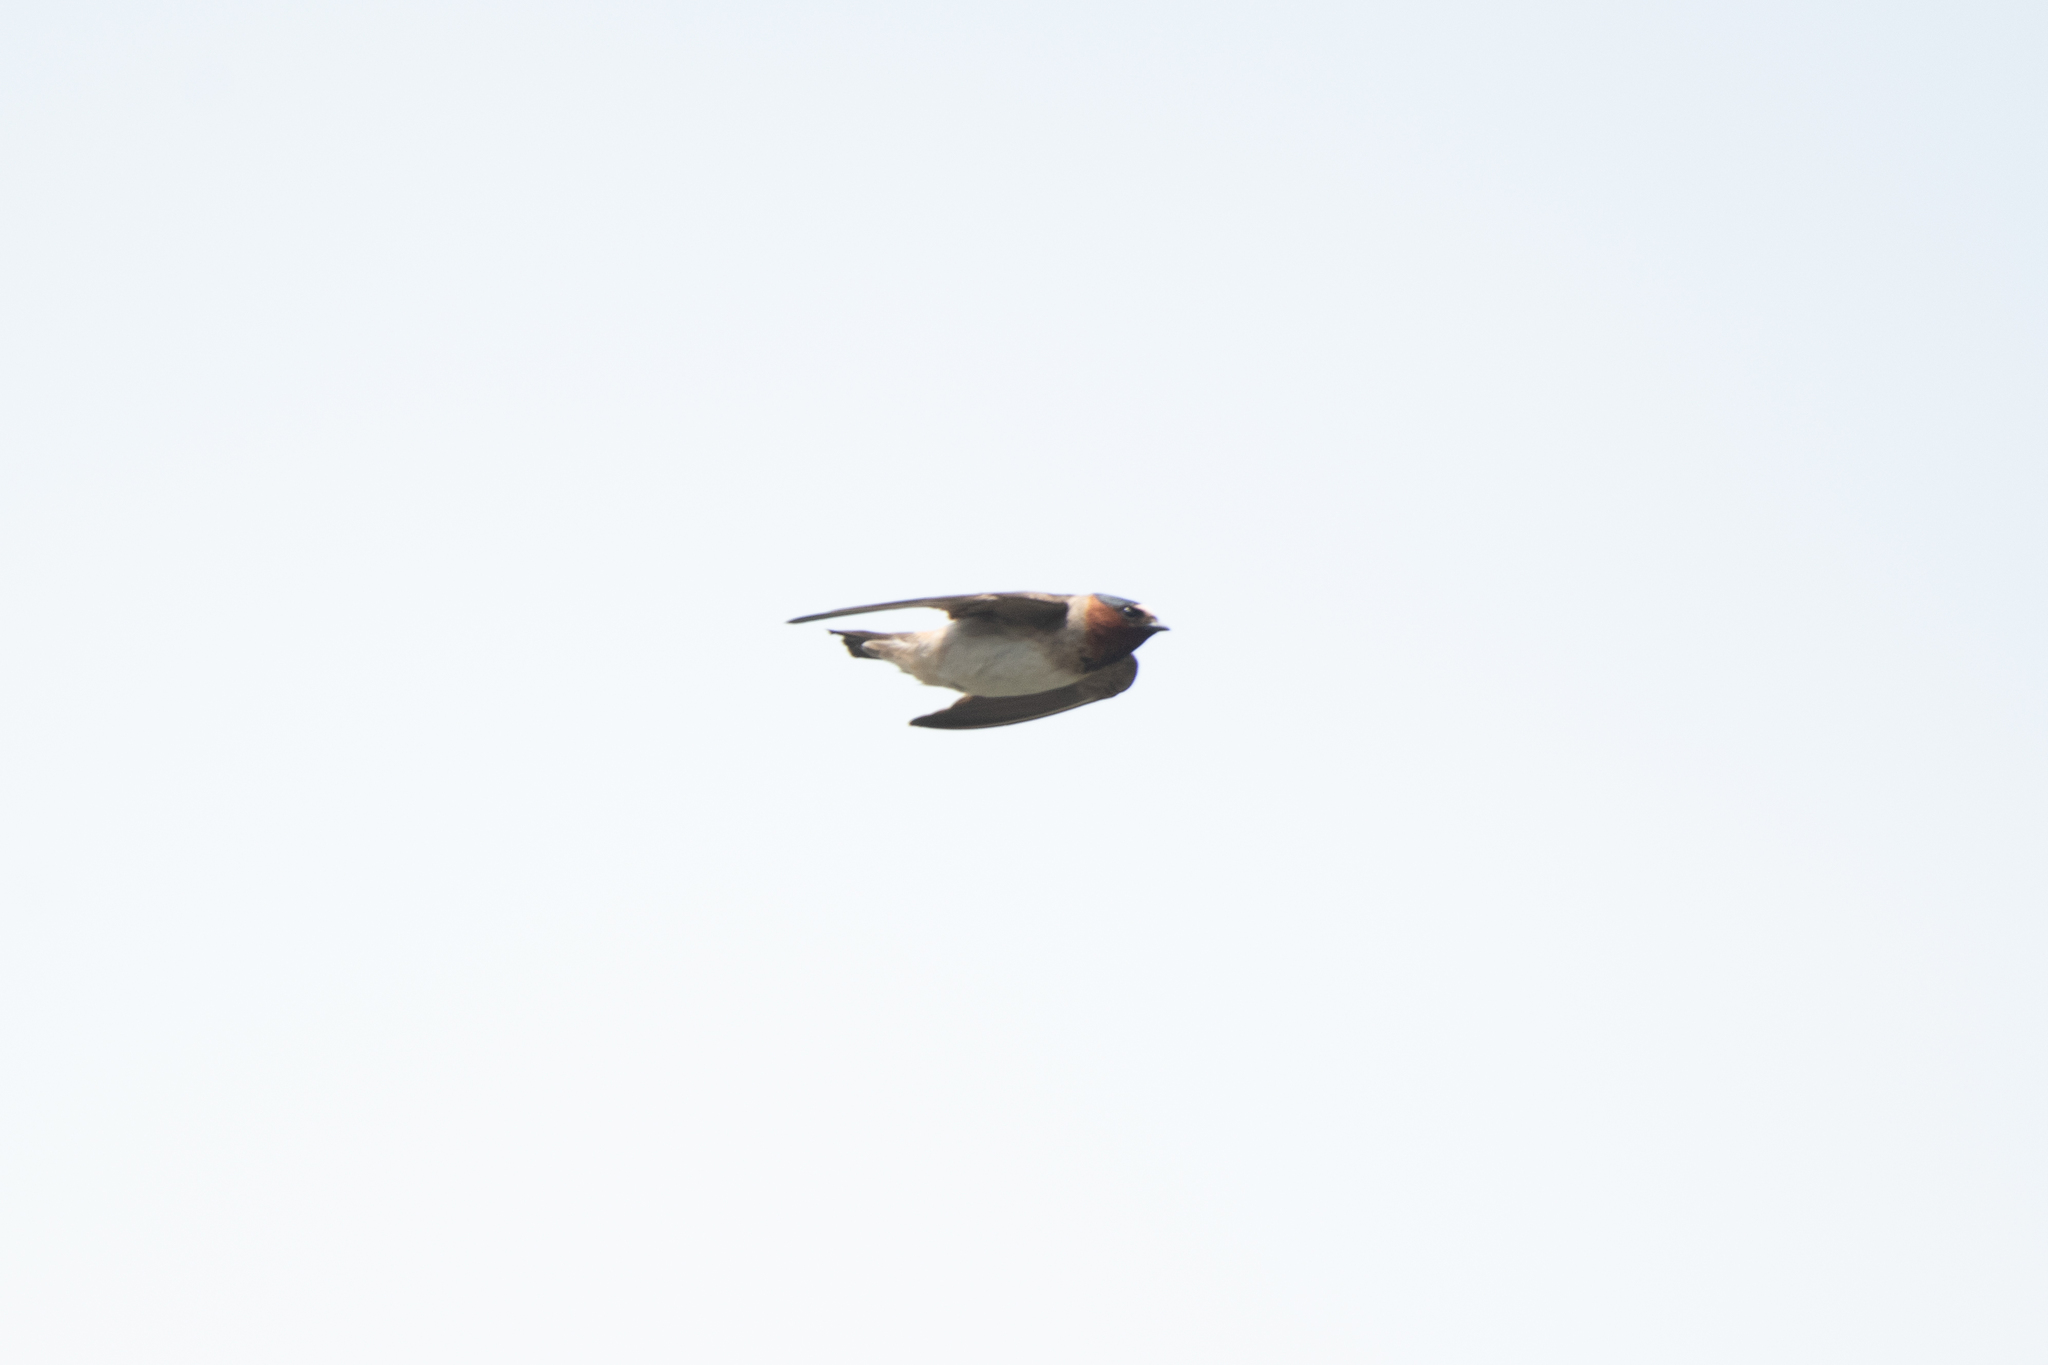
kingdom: Animalia
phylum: Chordata
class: Aves
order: Passeriformes
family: Hirundinidae
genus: Petrochelidon
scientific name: Petrochelidon pyrrhonota
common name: American cliff swallow
